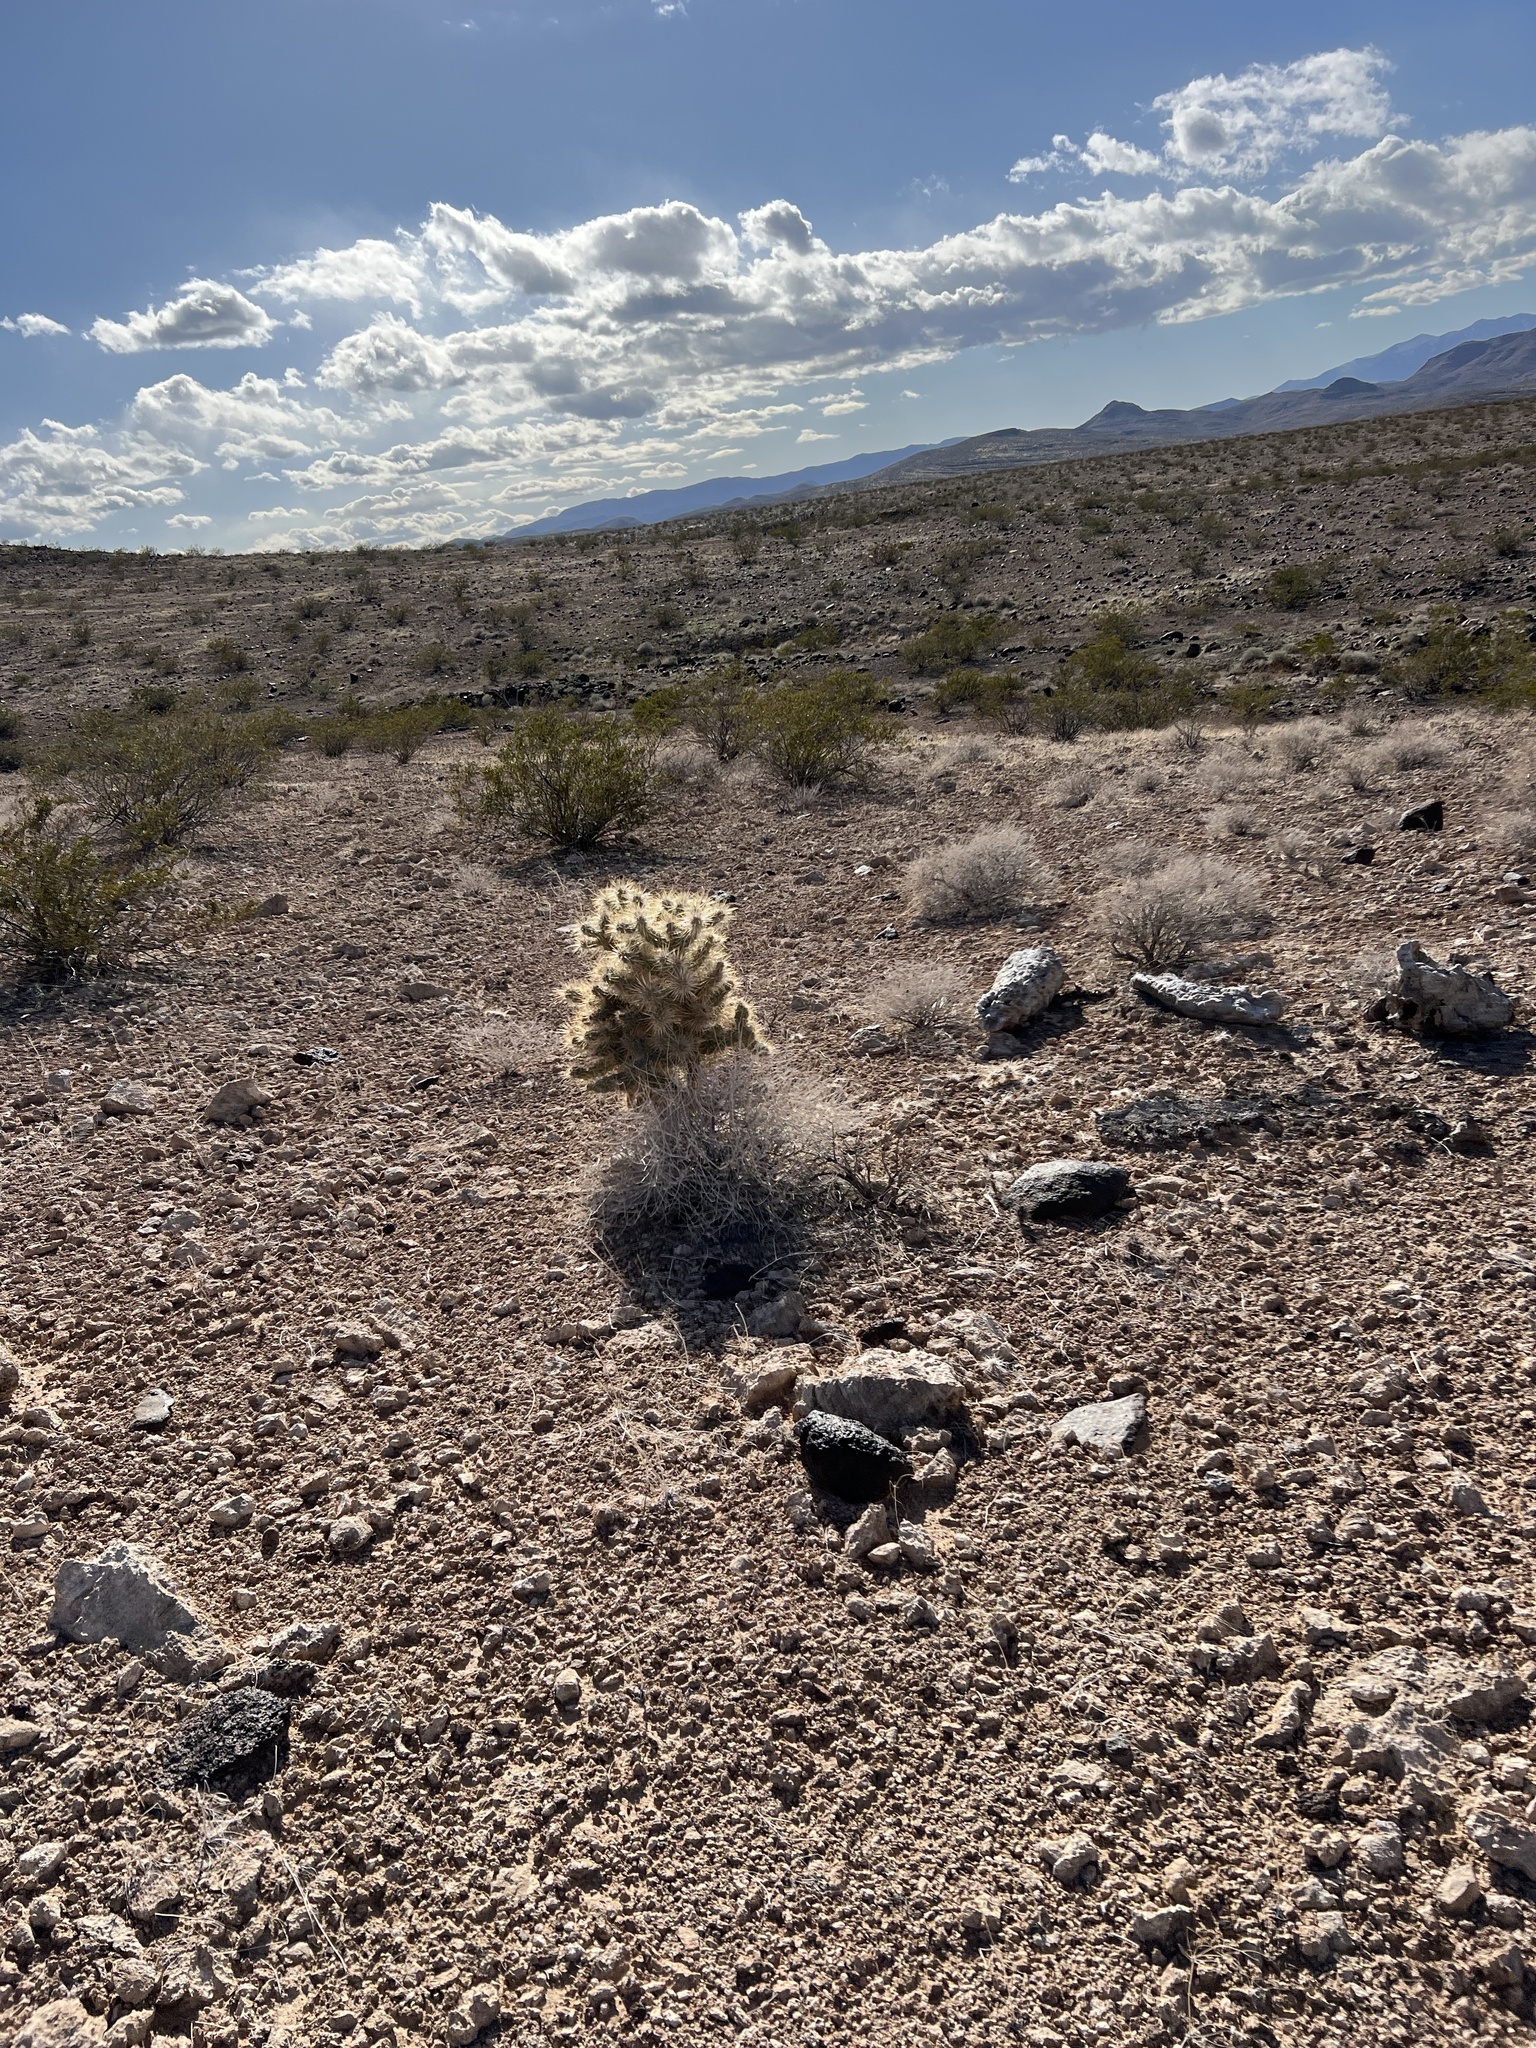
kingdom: Plantae
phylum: Tracheophyta
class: Magnoliopsida
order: Caryophyllales
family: Cactaceae
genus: Cylindropuntia
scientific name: Cylindropuntia echinocarpa
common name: Ground cholla
